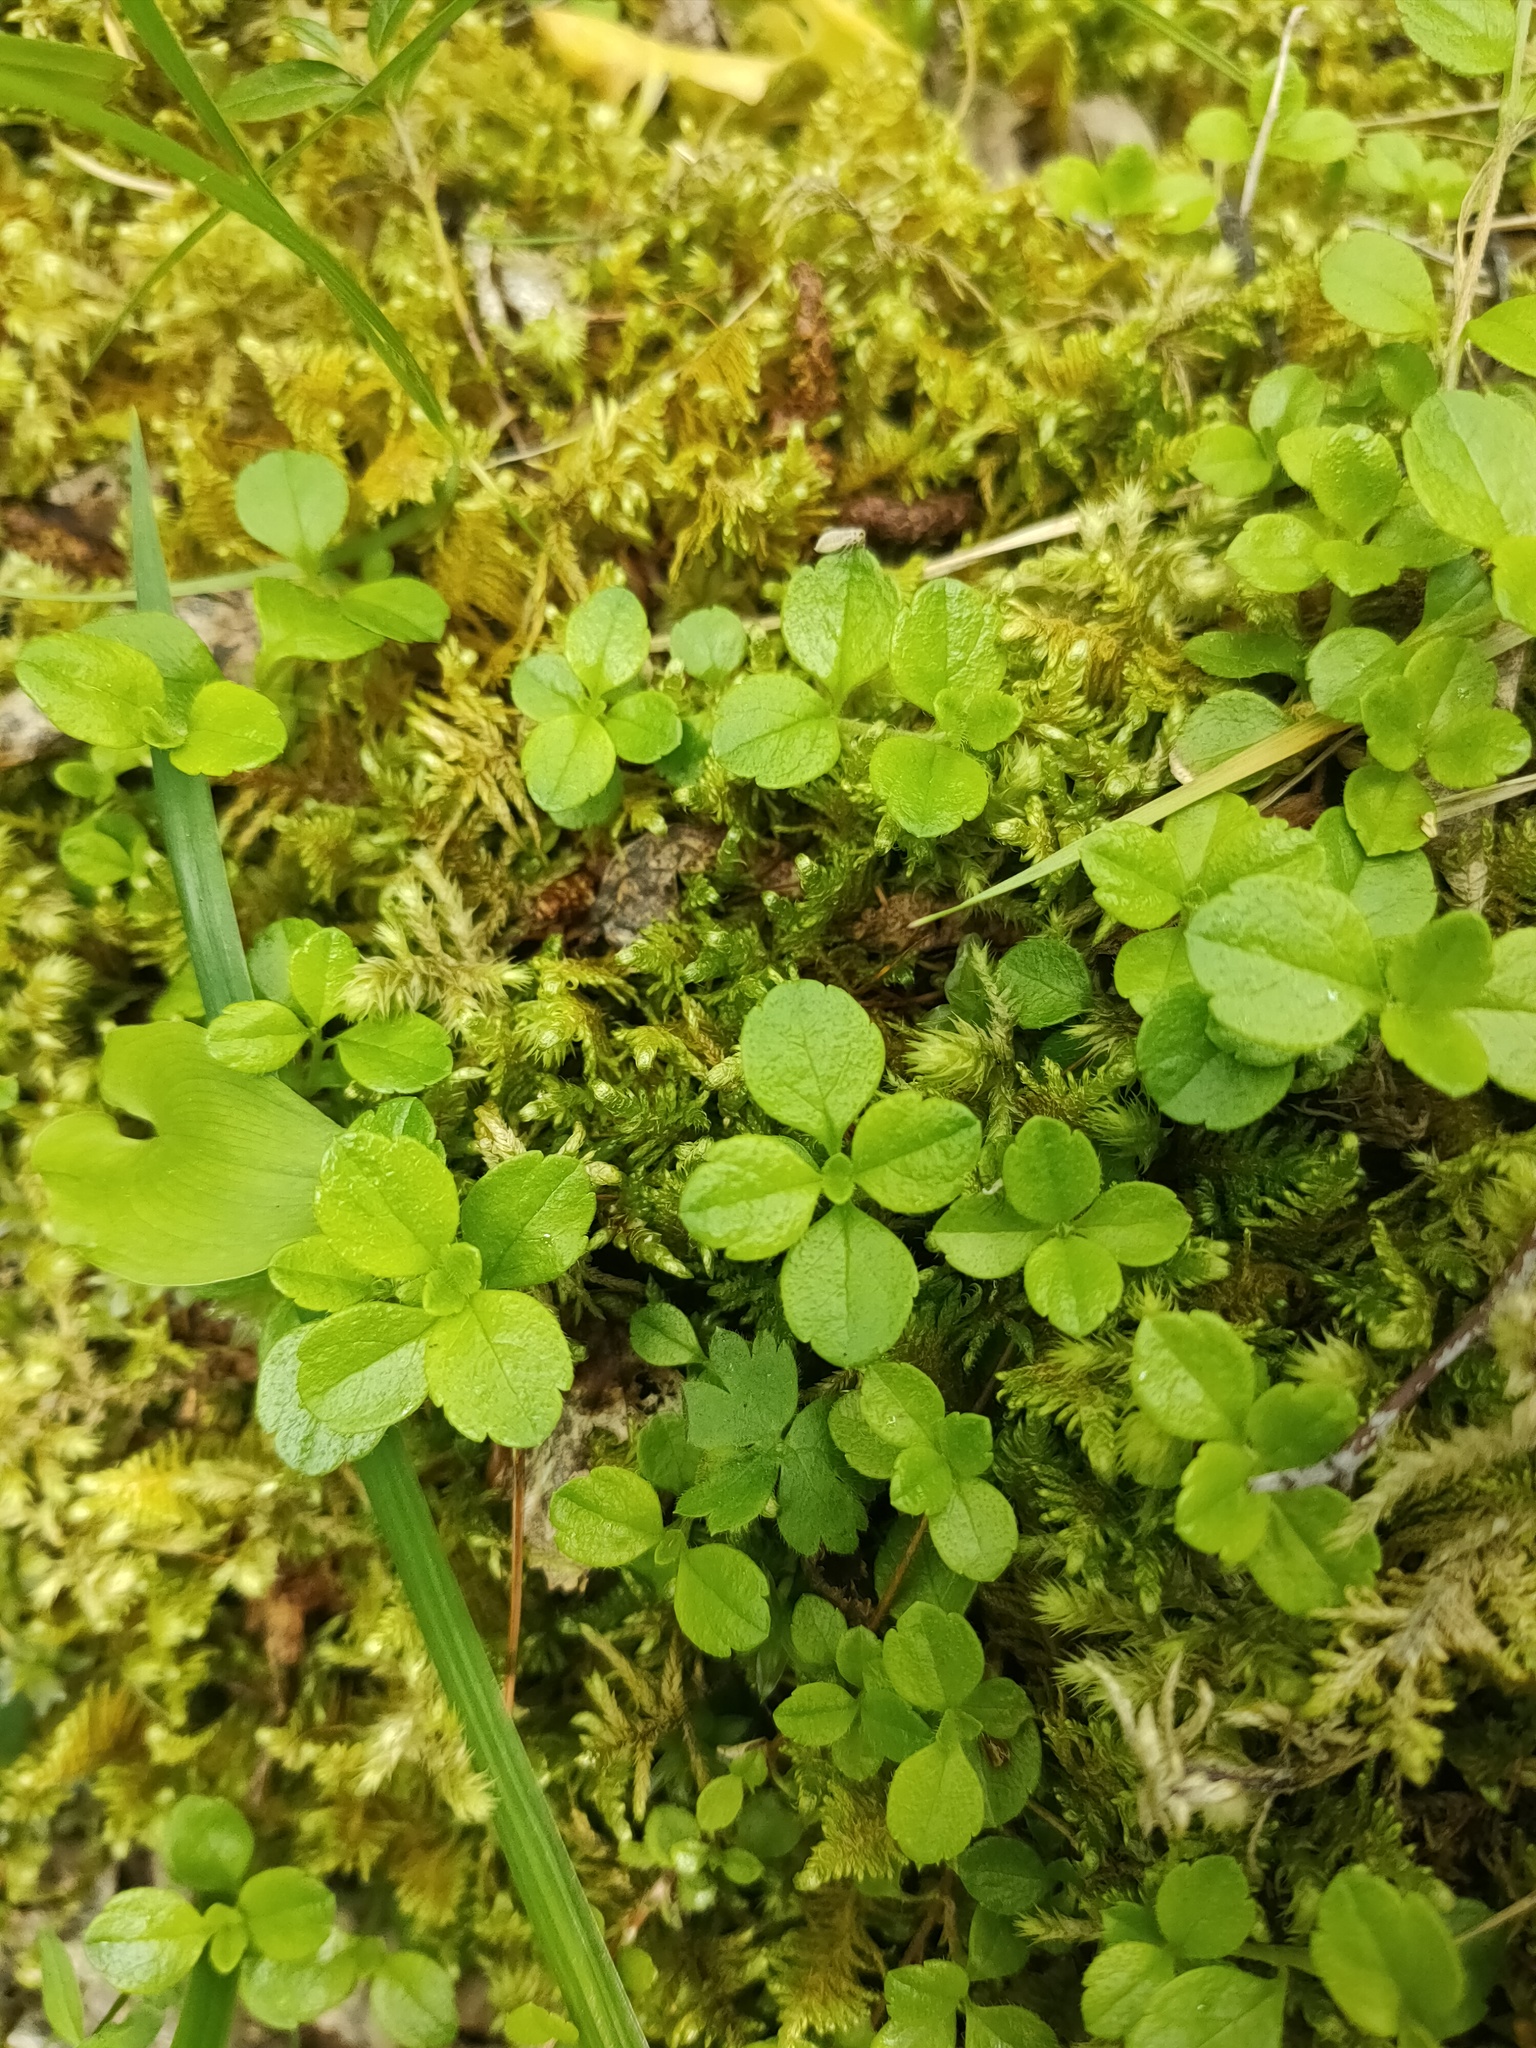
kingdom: Plantae
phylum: Tracheophyta
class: Magnoliopsida
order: Dipsacales
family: Caprifoliaceae
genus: Linnaea
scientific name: Linnaea borealis
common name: Twinflower
